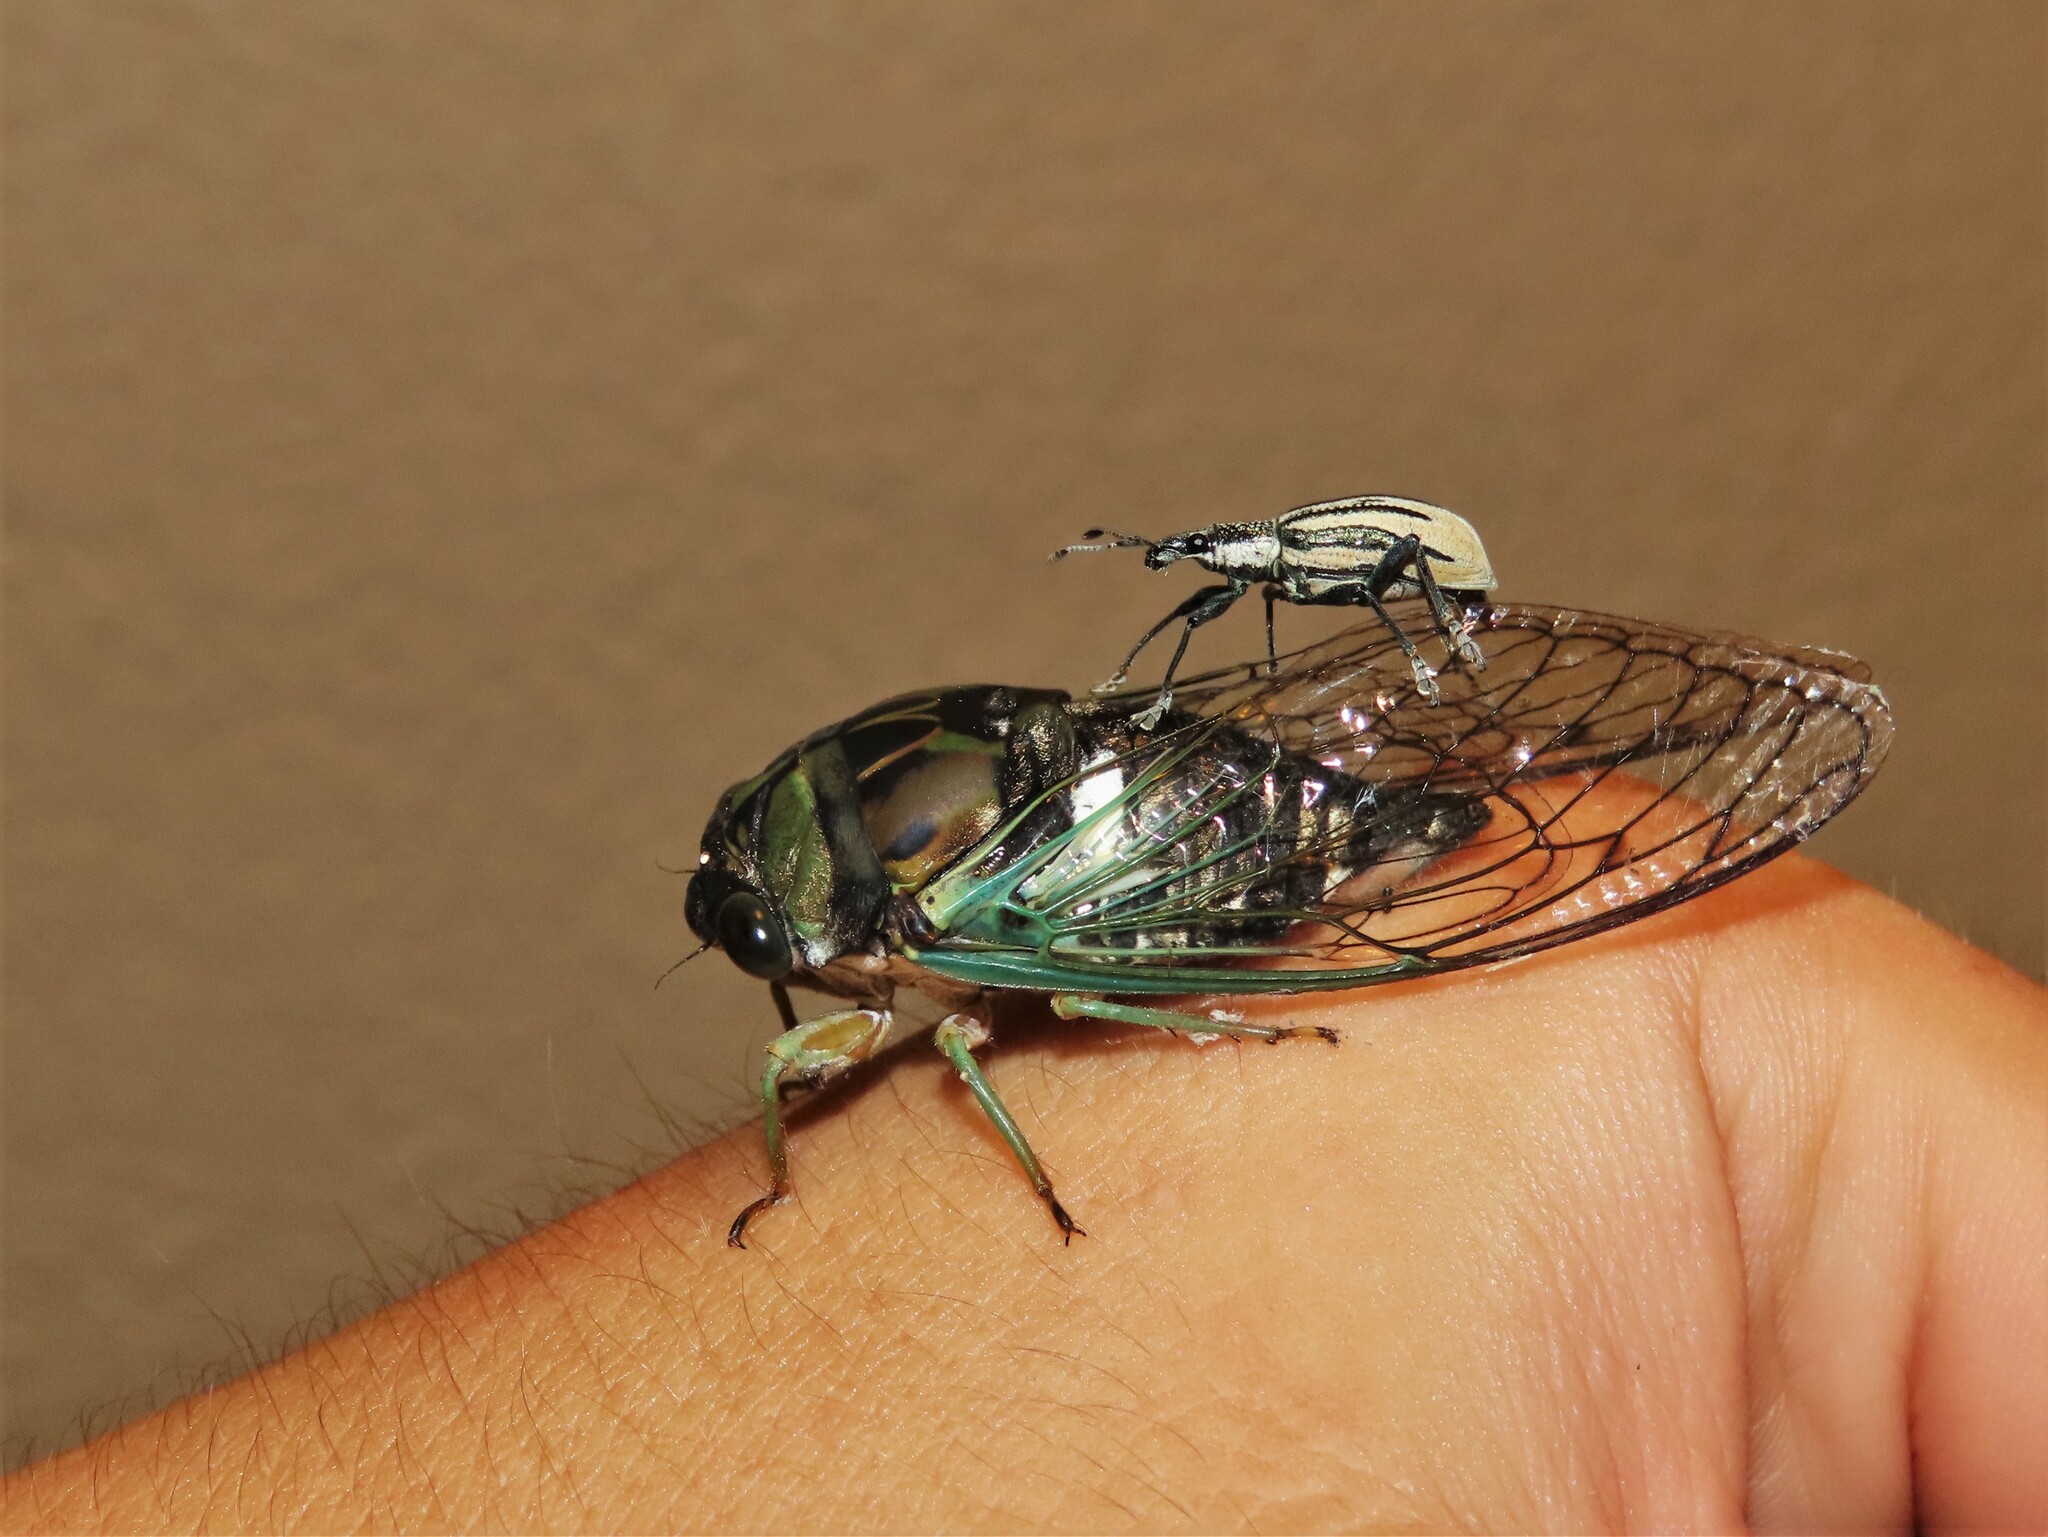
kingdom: Animalia
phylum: Arthropoda
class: Insecta
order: Coleoptera
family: Curculionidae
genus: Diaprepes
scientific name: Diaprepes abbreviatus
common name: Root weevil
